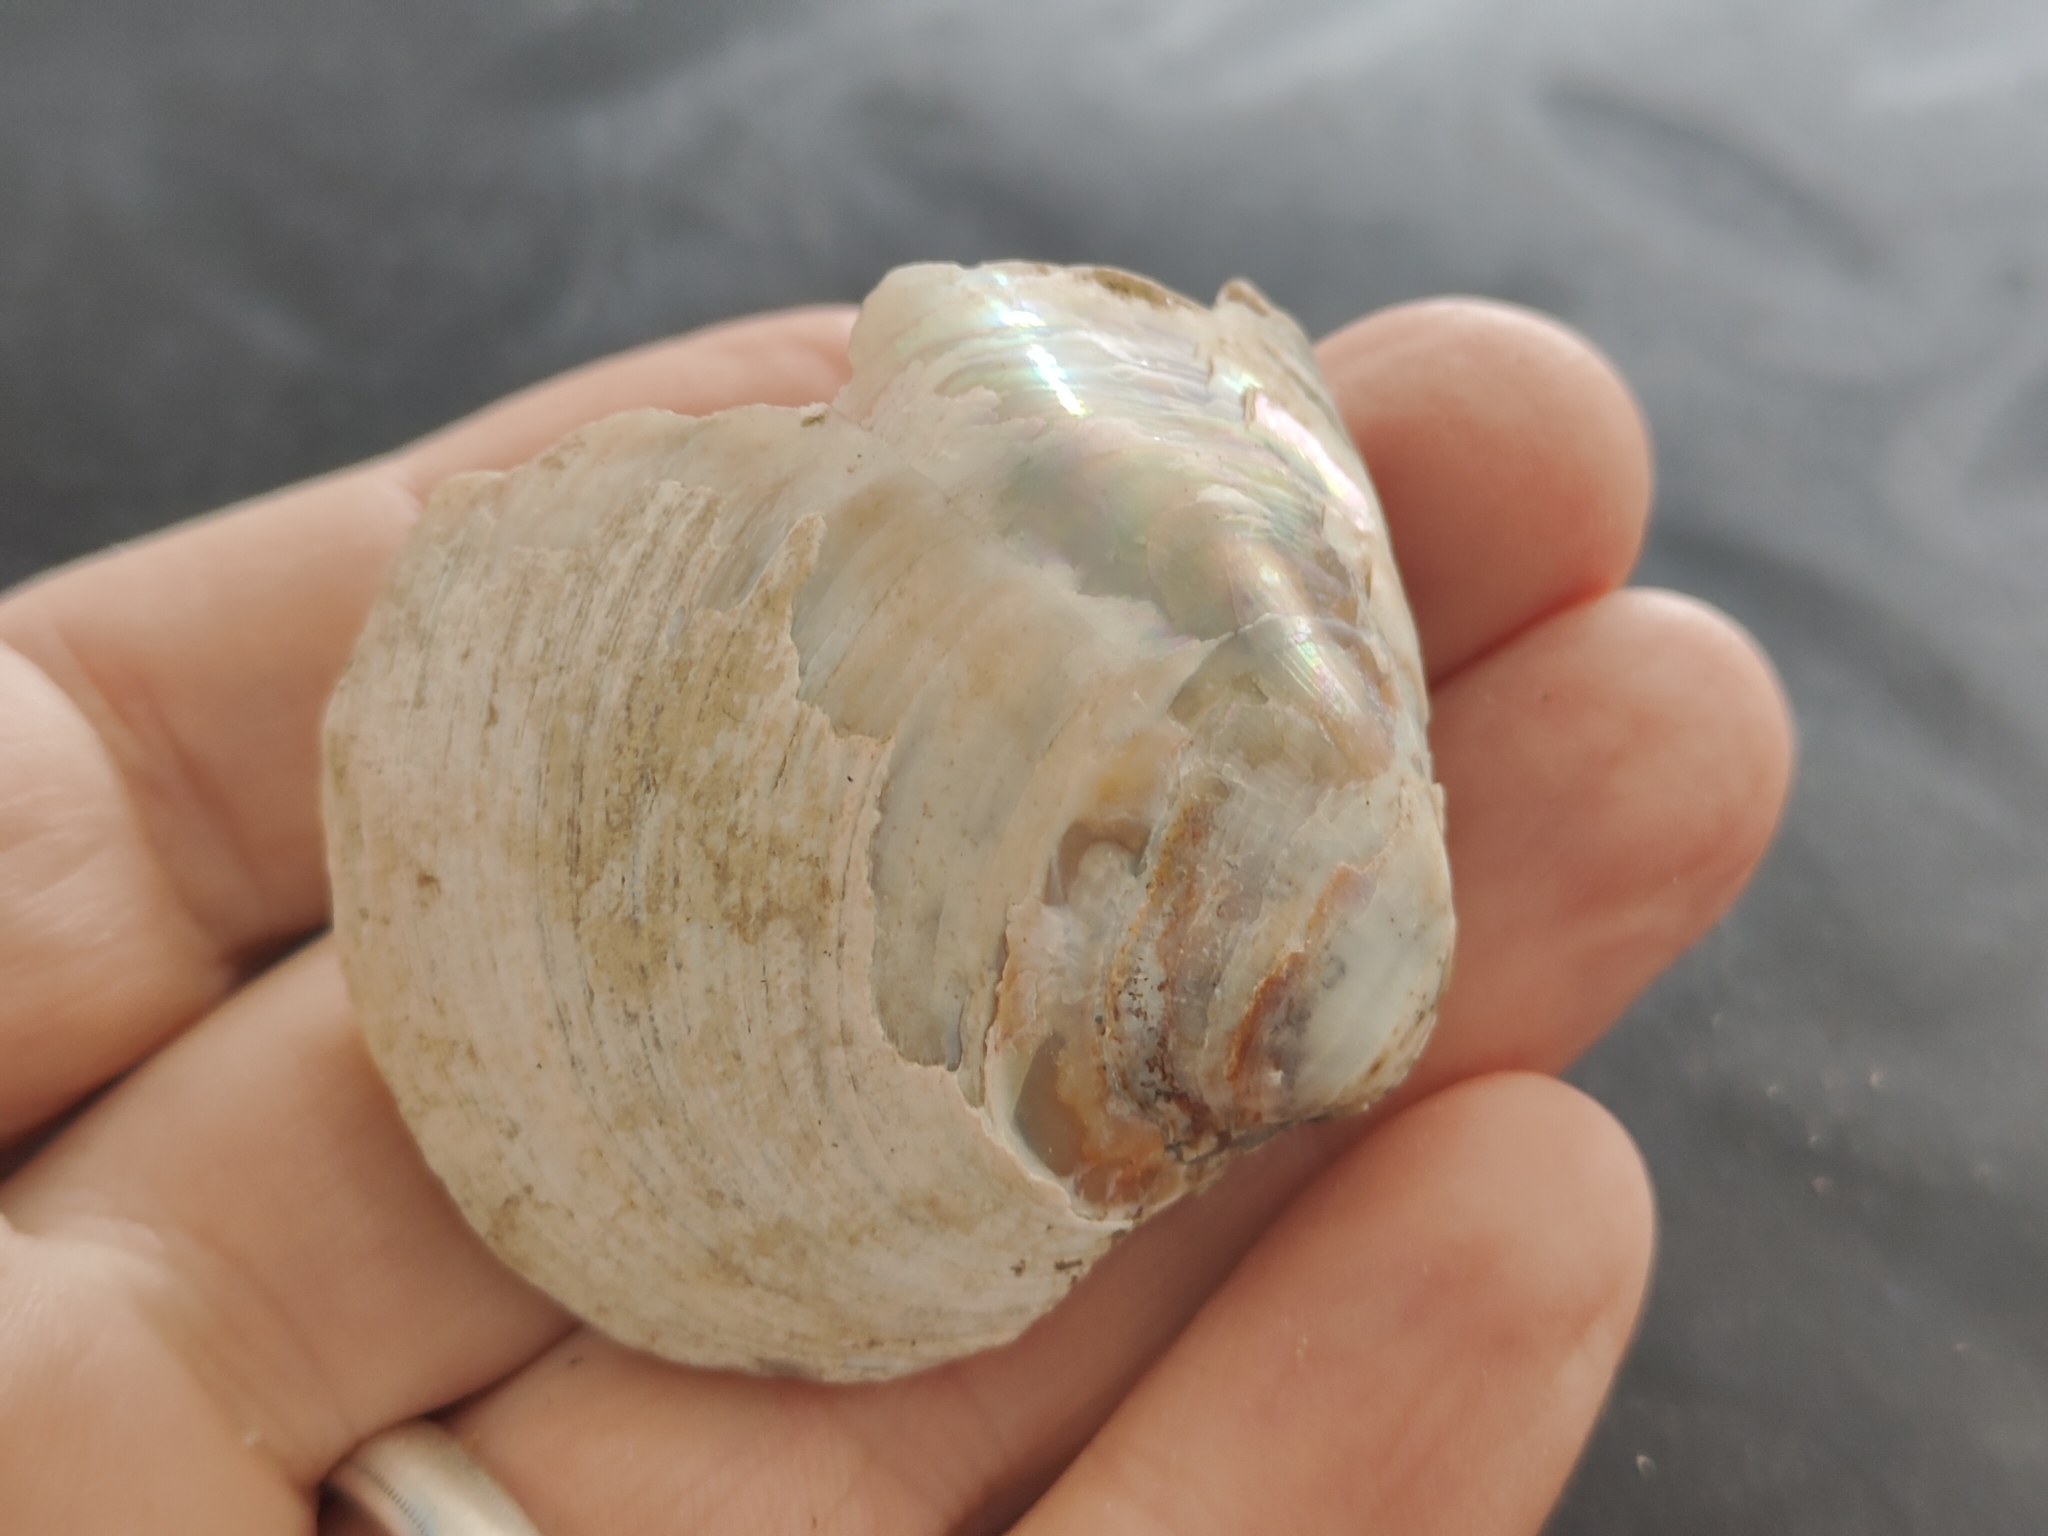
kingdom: Animalia
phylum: Mollusca
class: Bivalvia
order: Unionida
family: Unionidae
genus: Cyclonaias
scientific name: Cyclonaias pustulosa
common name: Pimpleback
